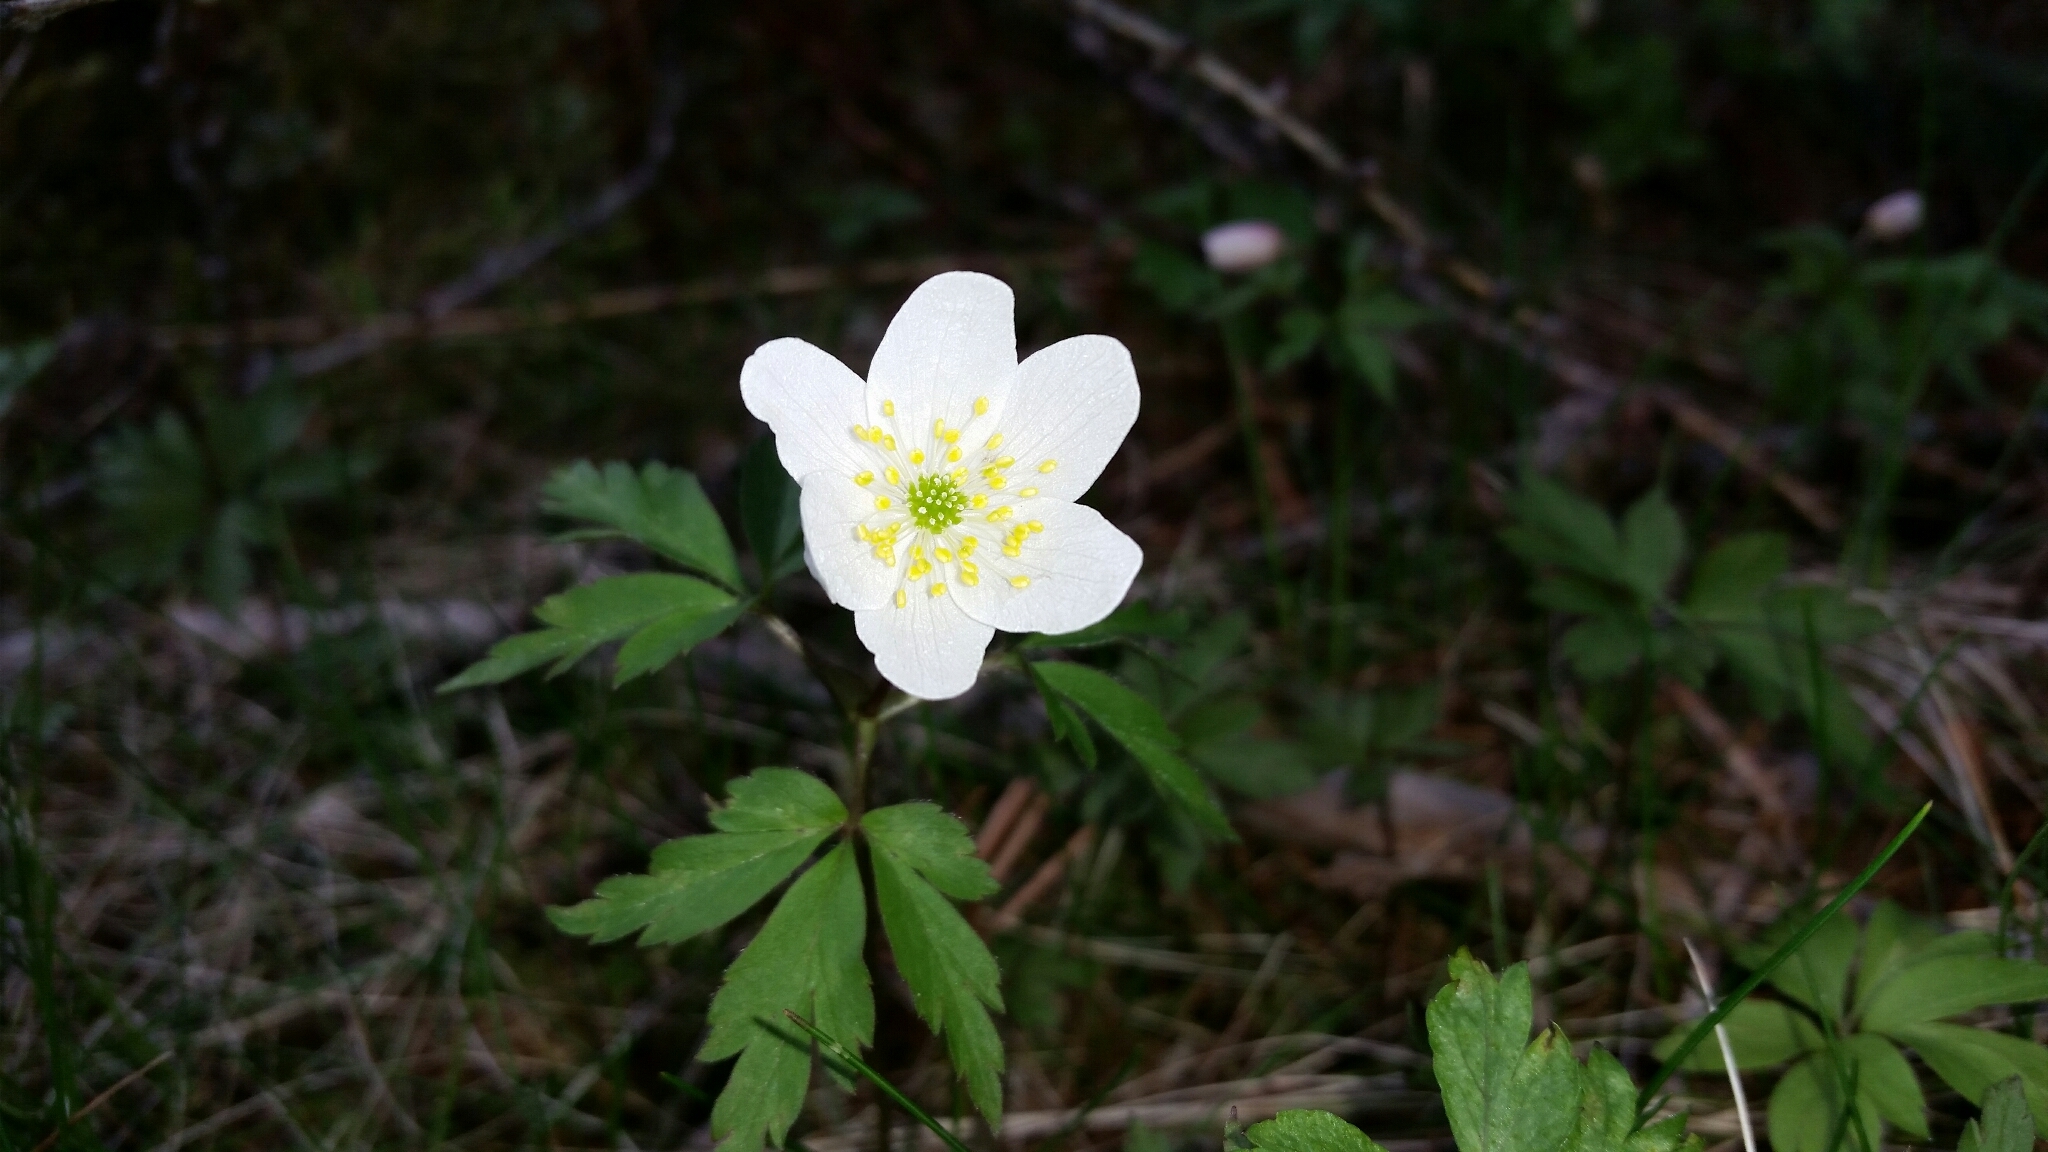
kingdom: Plantae
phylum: Tracheophyta
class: Magnoliopsida
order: Ranunculales
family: Ranunculaceae
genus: Anemone
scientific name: Anemone nemorosa
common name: Wood anemone
